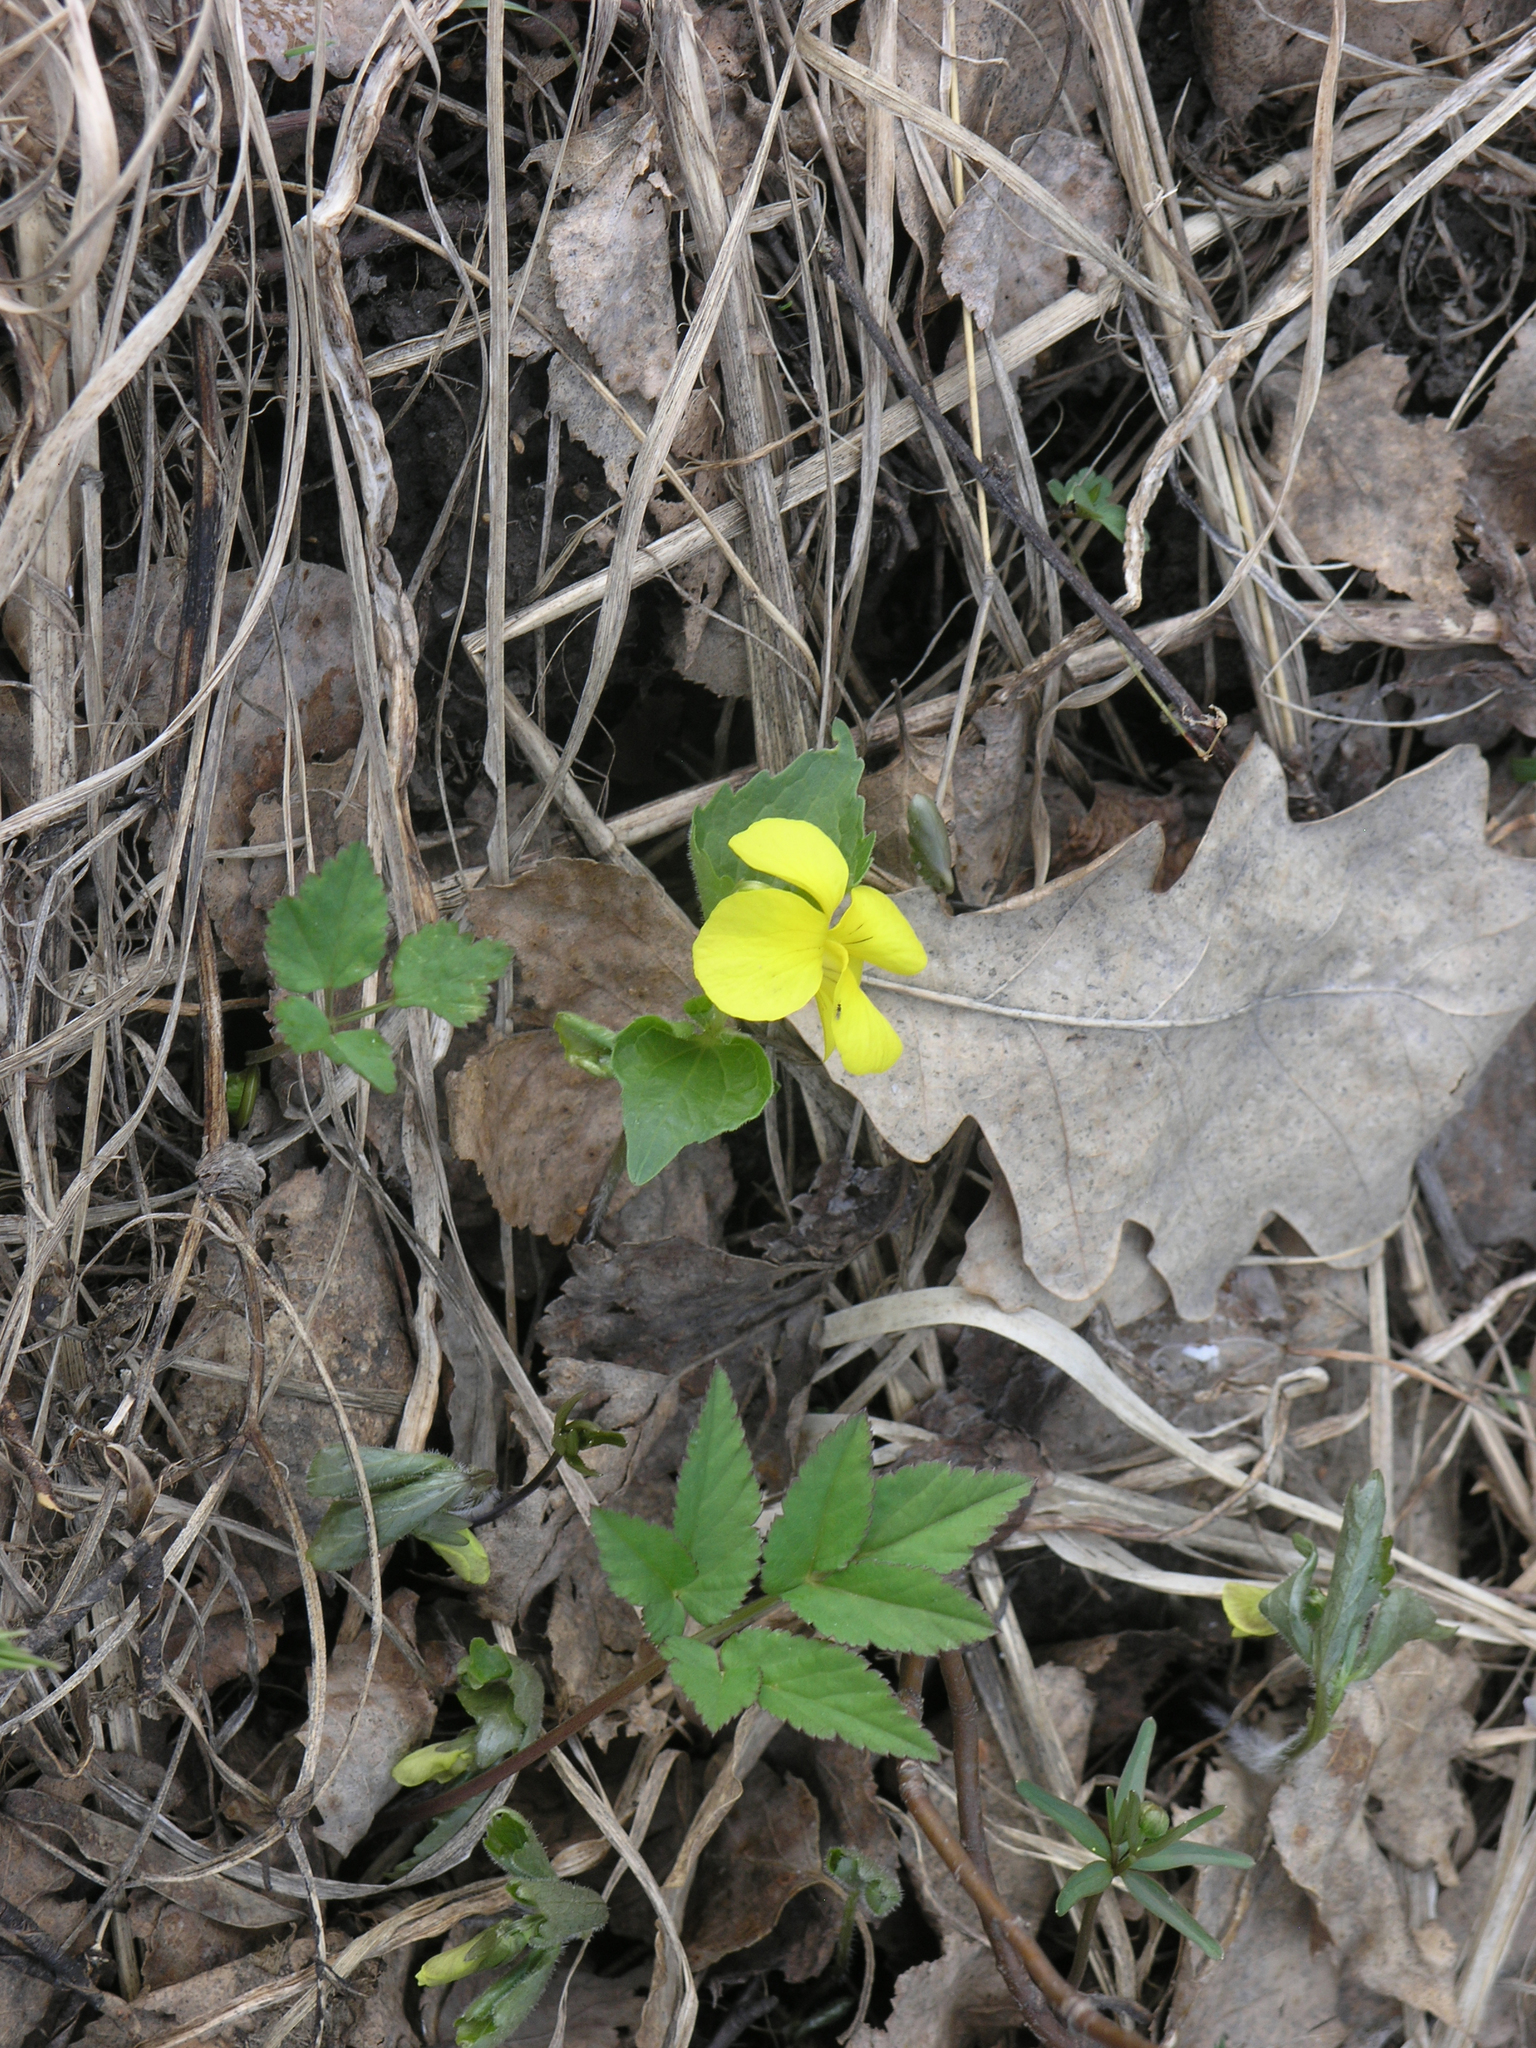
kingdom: Plantae
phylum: Tracheophyta
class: Magnoliopsida
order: Malpighiales
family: Violaceae
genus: Viola
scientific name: Viola uniflora
